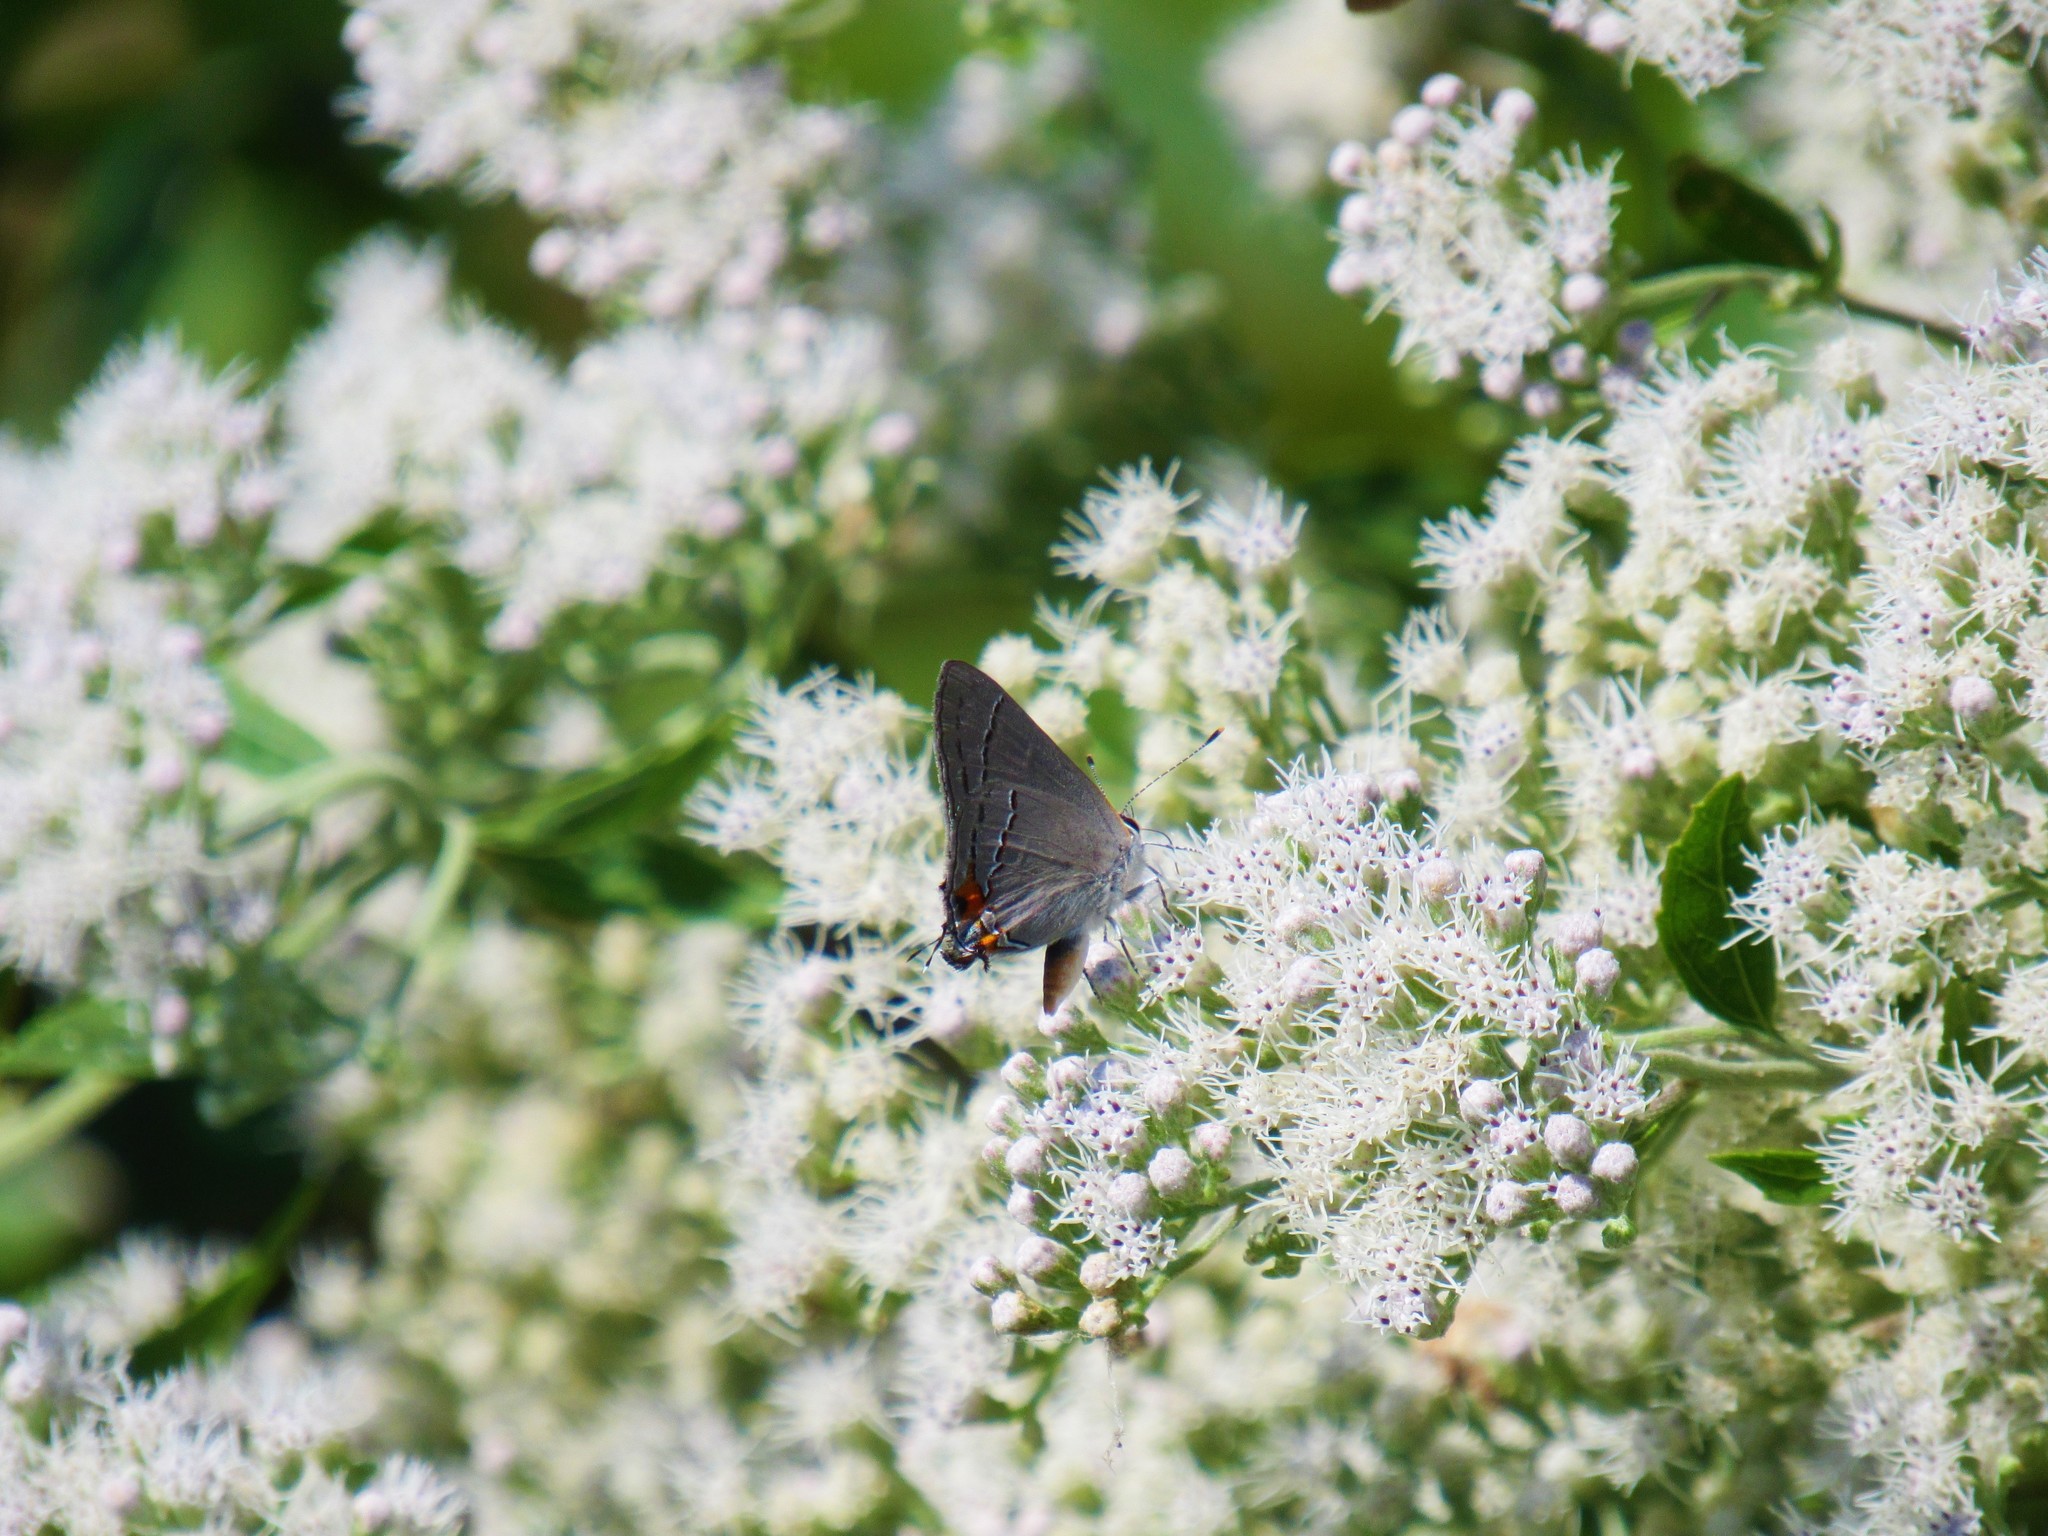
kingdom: Animalia
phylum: Arthropoda
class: Insecta
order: Lepidoptera
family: Lycaenidae
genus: Strymon
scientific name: Strymon melinus
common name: Gray hairstreak
